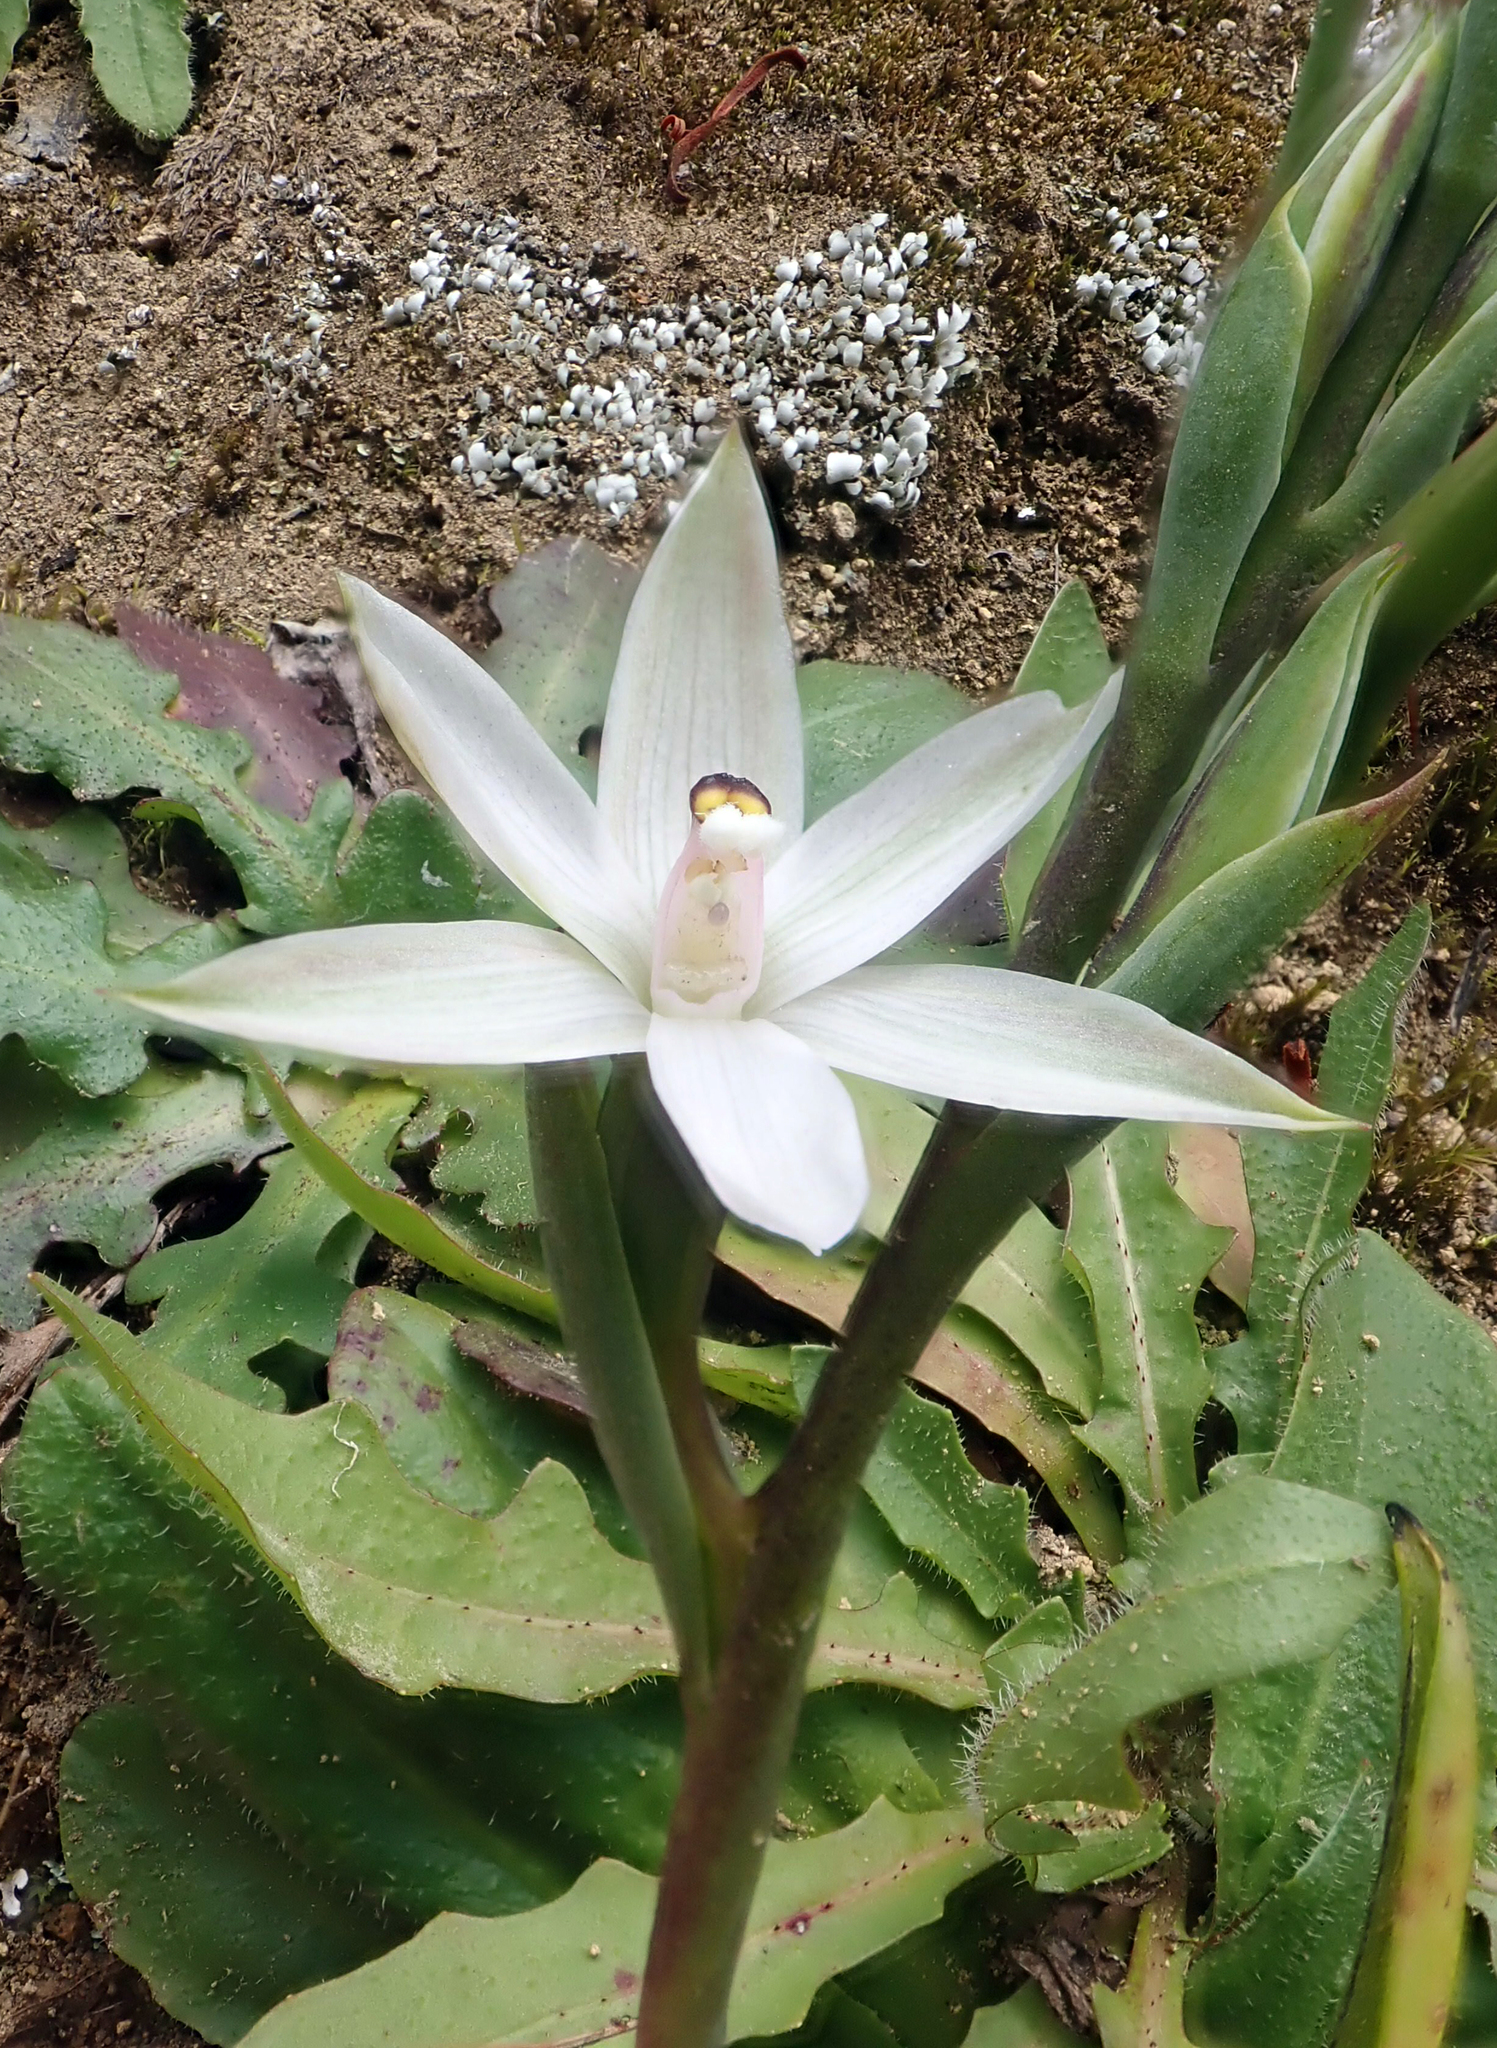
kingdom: Plantae
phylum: Tracheophyta
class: Liliopsida
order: Asparagales
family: Orchidaceae
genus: Thelymitra
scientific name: Thelymitra longifolia
